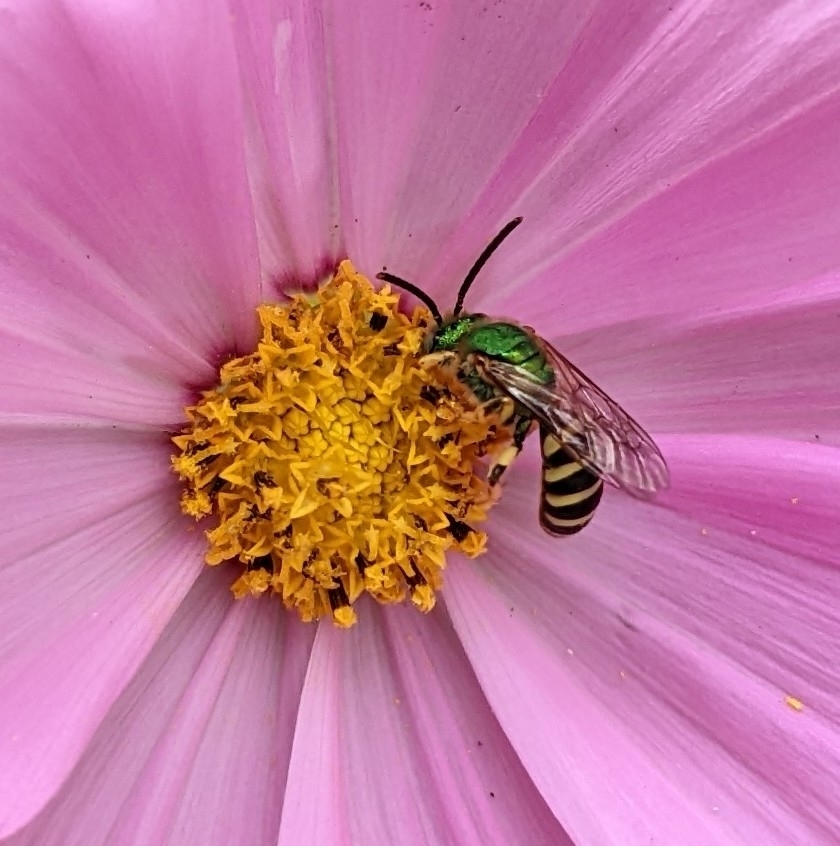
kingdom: Animalia
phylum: Arthropoda
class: Insecta
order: Hymenoptera
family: Halictidae
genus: Agapostemon
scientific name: Agapostemon virescens
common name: Bicolored striped sweat bee
